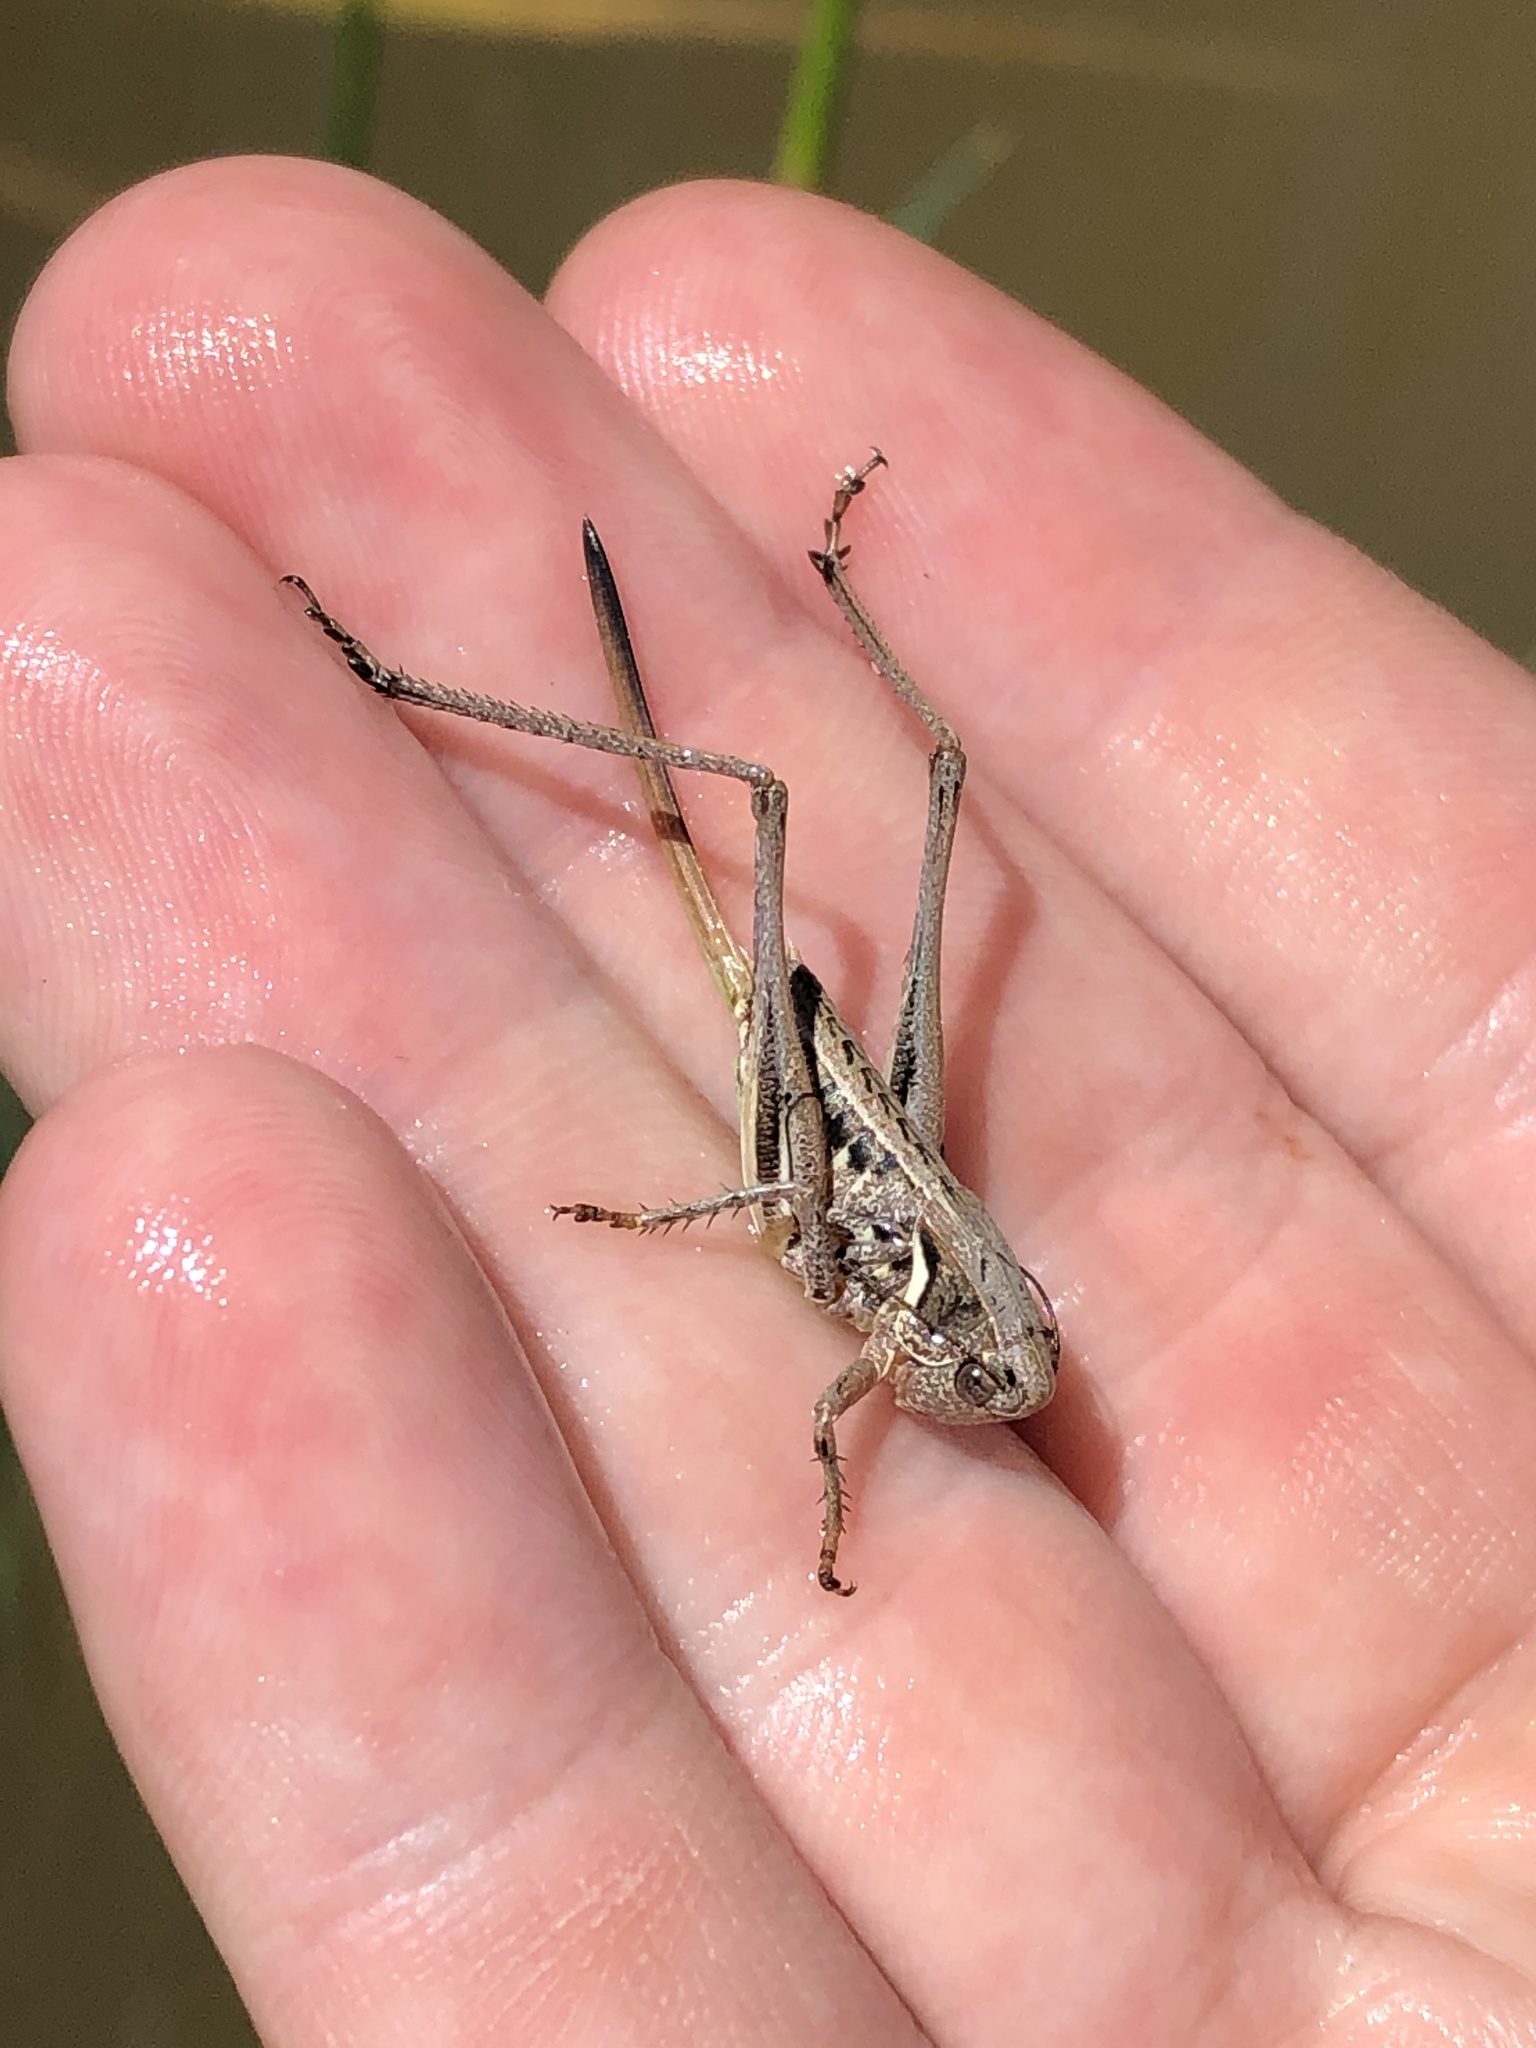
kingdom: Animalia
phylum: Arthropoda
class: Insecta
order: Orthoptera
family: Tettigoniidae
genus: Steiroxys
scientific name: Steiroxys trilineata
